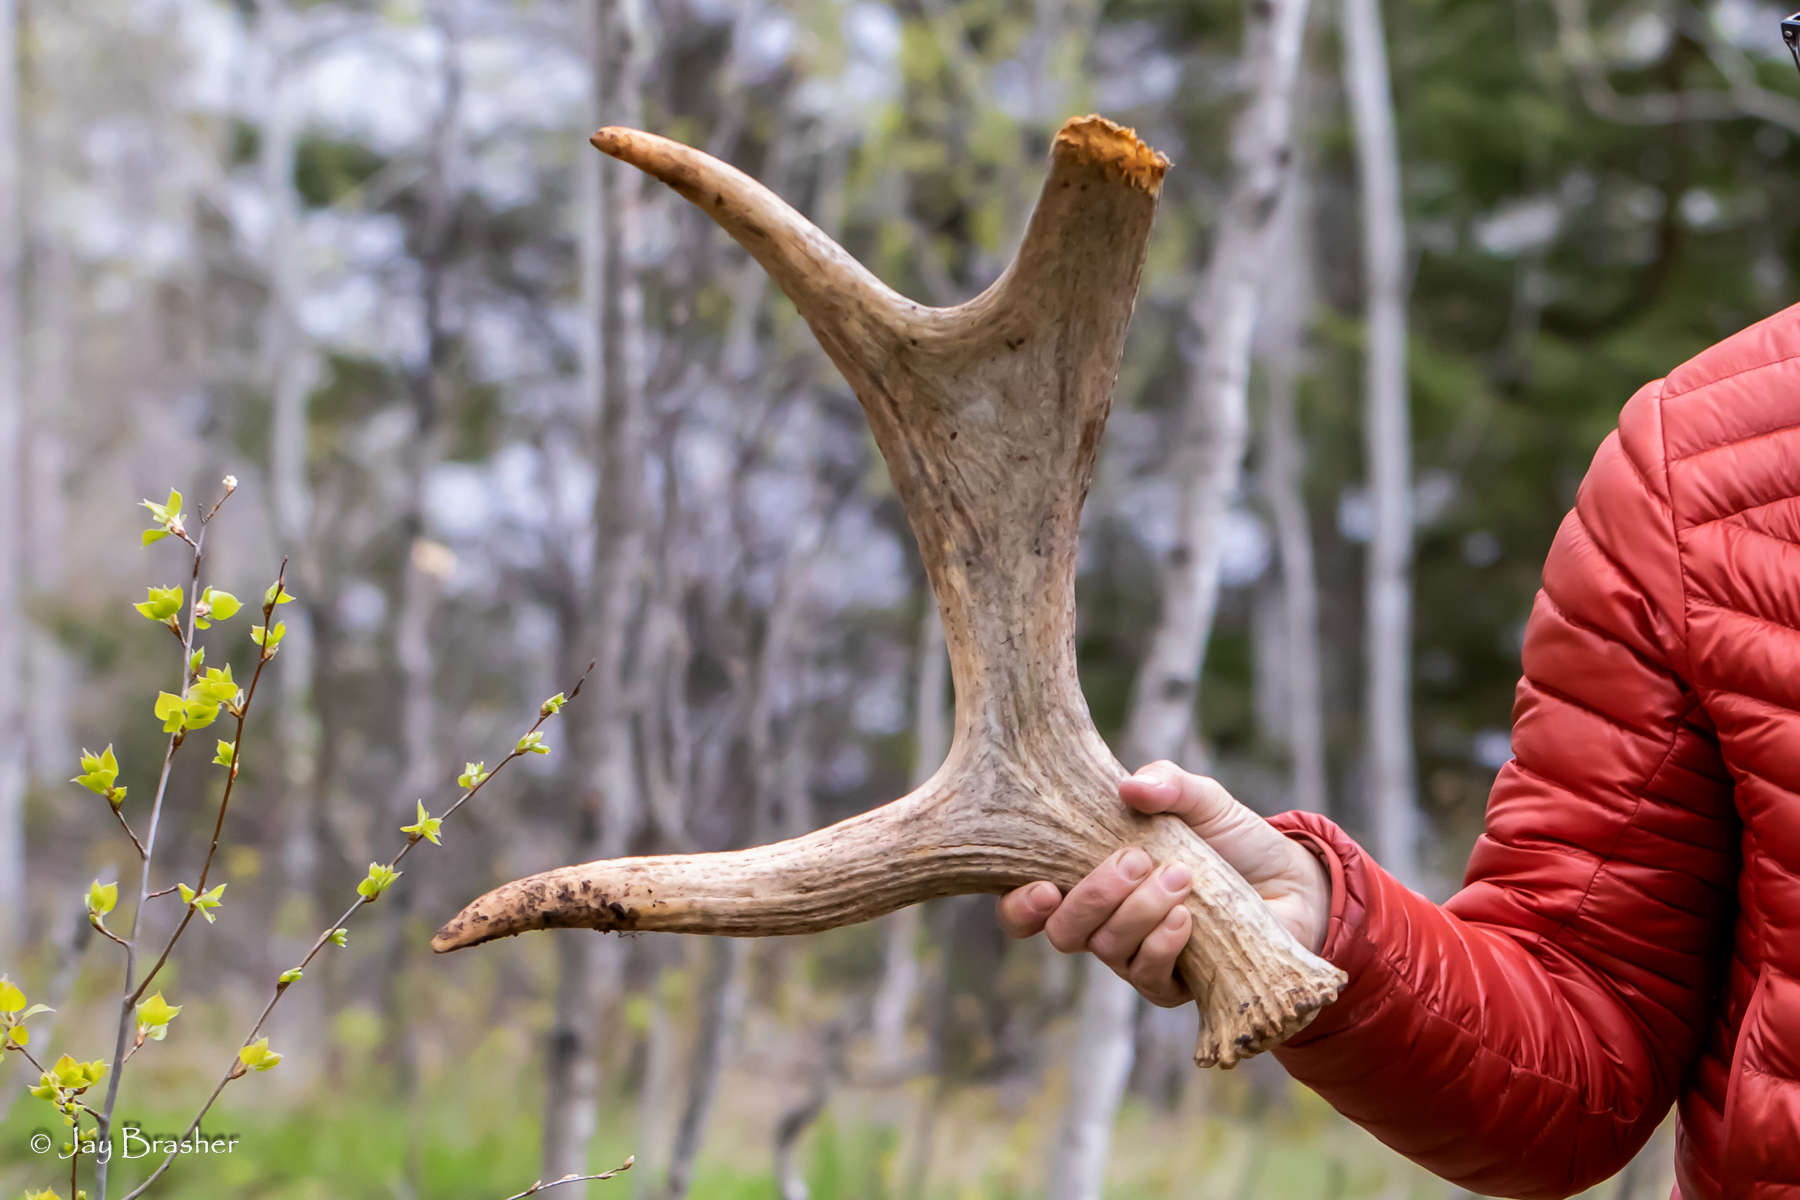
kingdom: Animalia
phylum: Chordata
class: Mammalia
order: Artiodactyla
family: Cervidae
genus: Alces
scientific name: Alces americanus
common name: Moose
